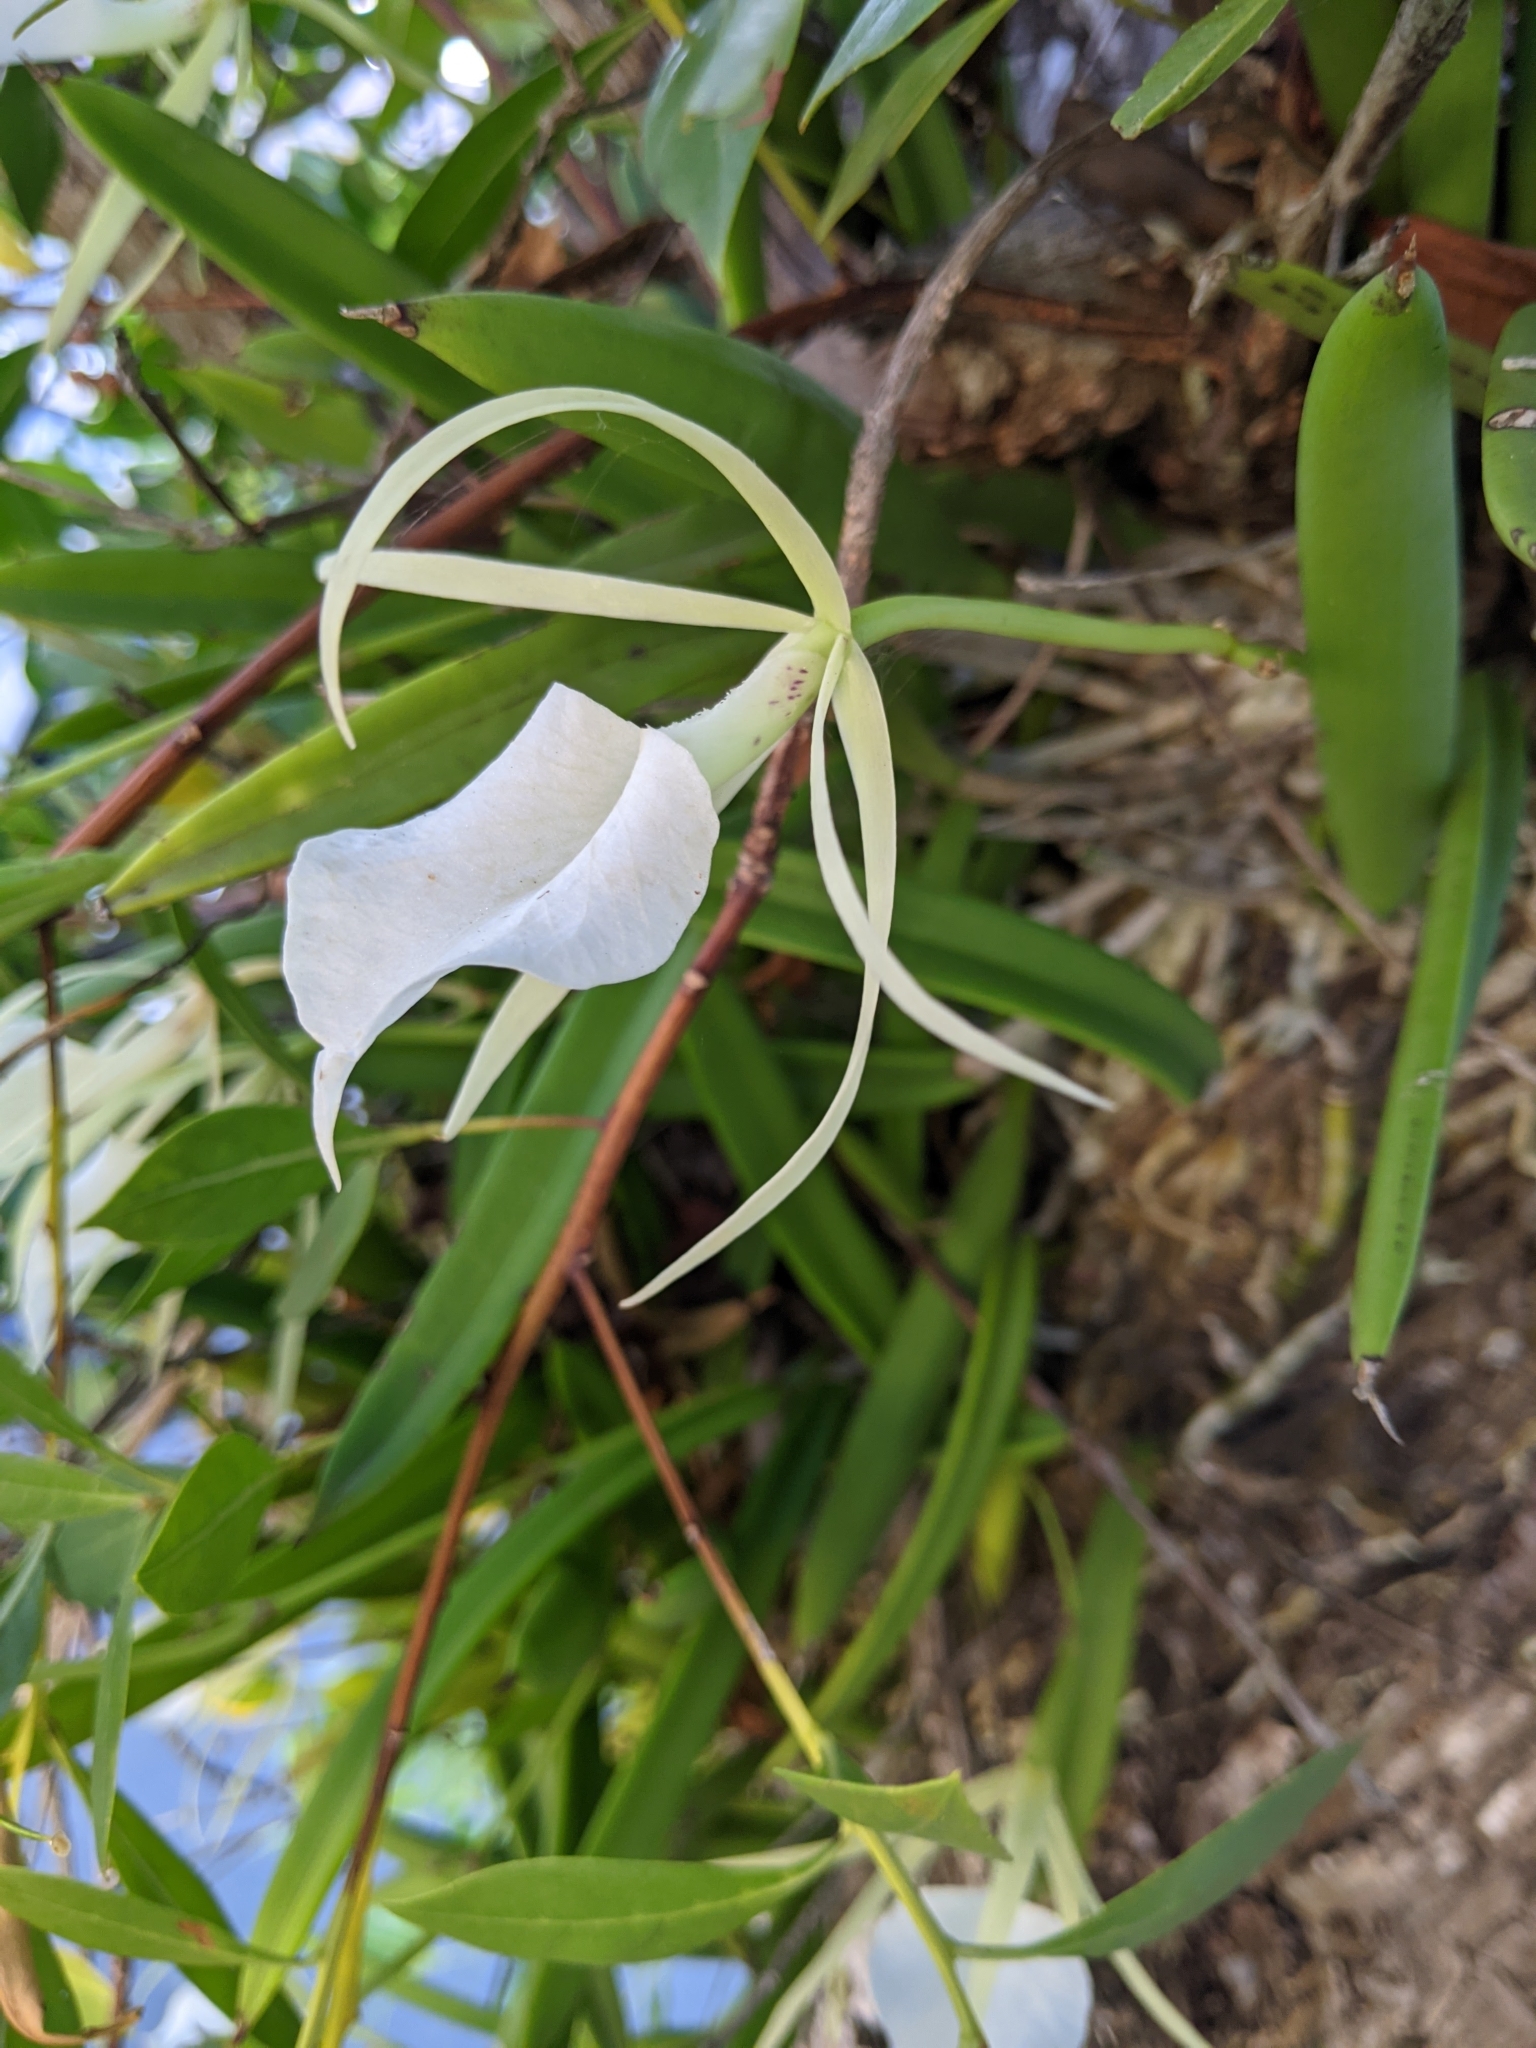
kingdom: Plantae
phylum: Tracheophyta
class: Liliopsida
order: Asparagales
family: Orchidaceae
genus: Brassavola
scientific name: Brassavola nodosa
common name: Lady of the night
